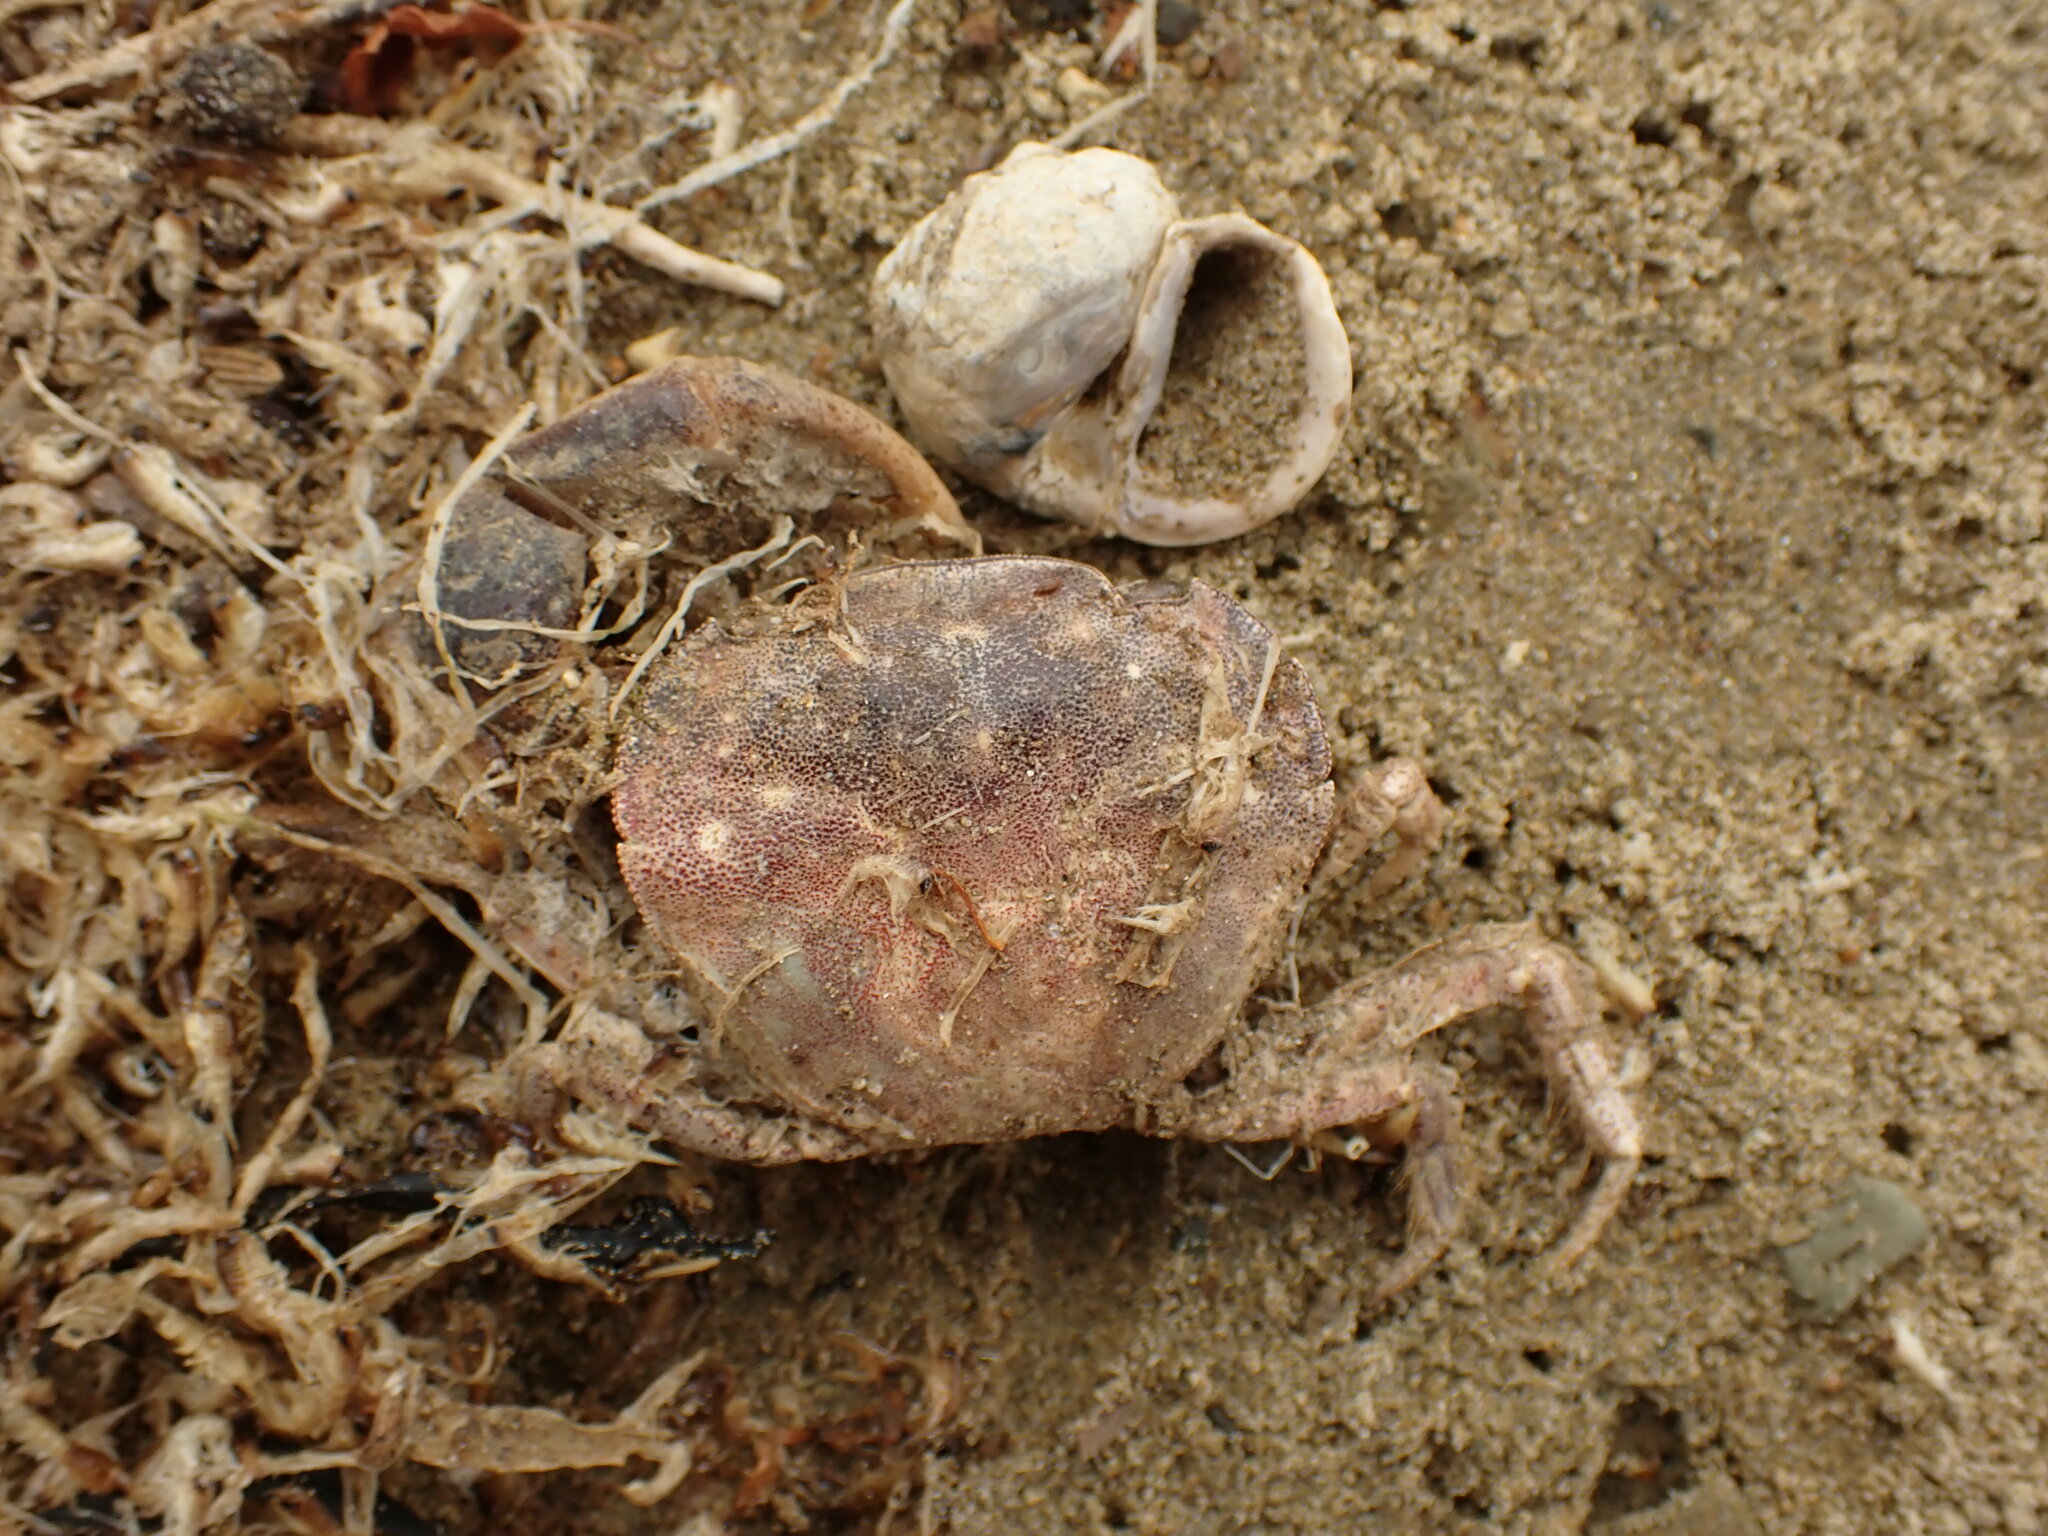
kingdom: Animalia
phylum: Arthropoda
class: Malacostraca
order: Decapoda
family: Varunidae
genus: Hemigrapsus
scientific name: Hemigrapsus crenulatus
